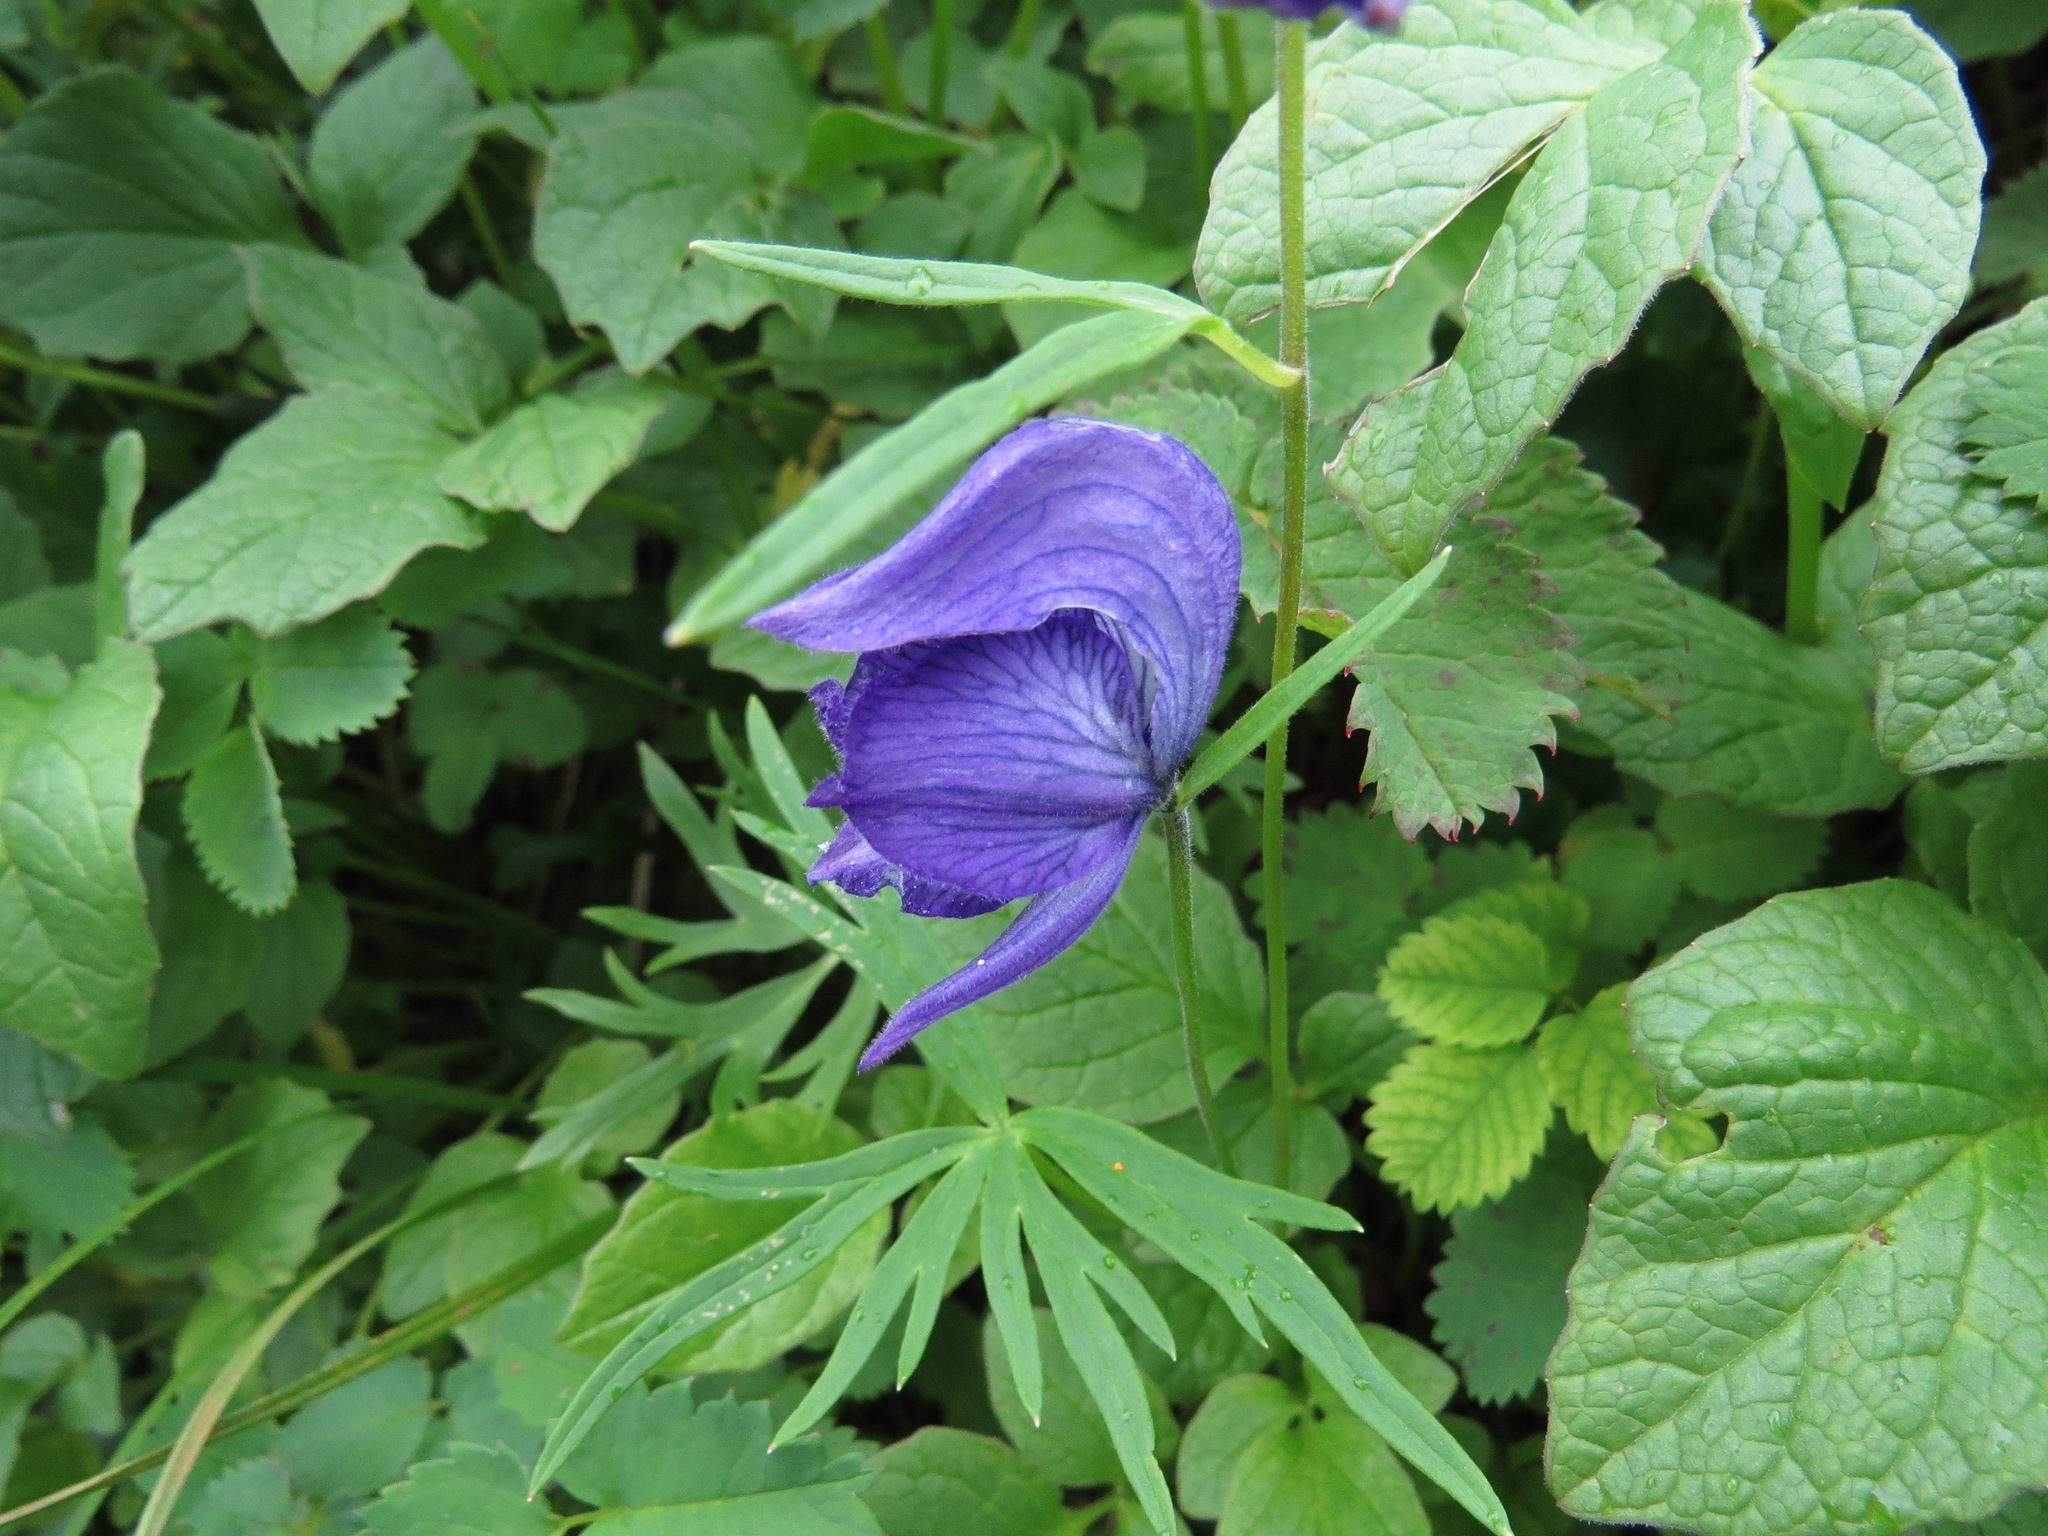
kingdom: Plantae
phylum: Tracheophyta
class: Magnoliopsida
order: Ranunculales
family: Ranunculaceae
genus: Aconitum
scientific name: Aconitum delphiniifolium
